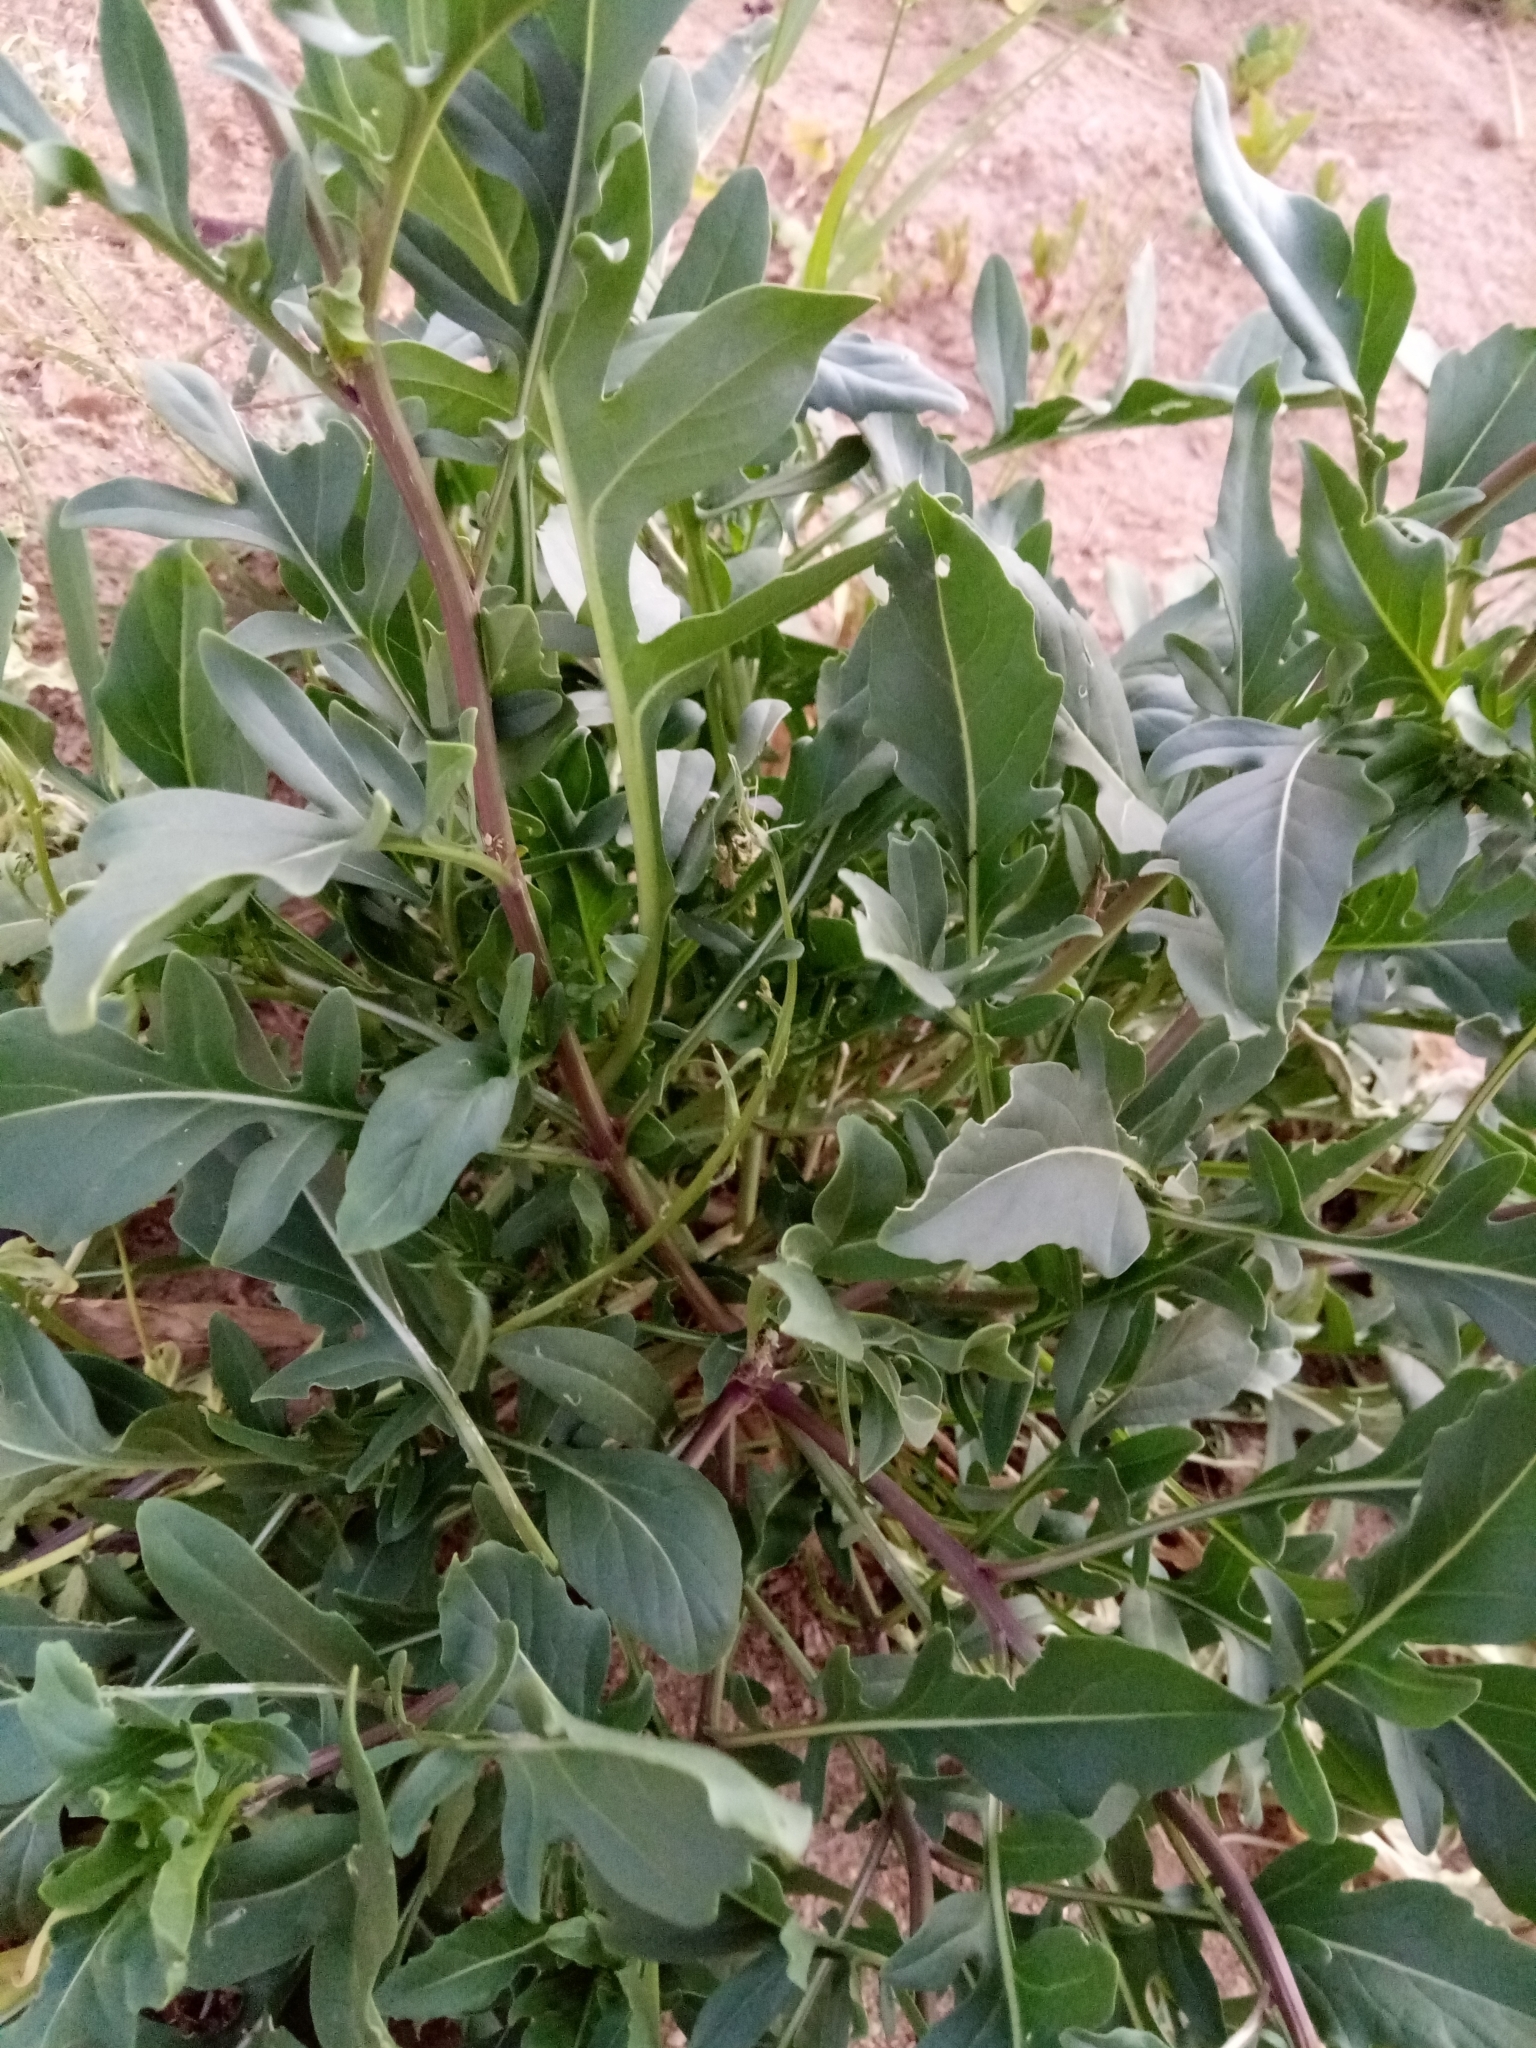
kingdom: Plantae
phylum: Tracheophyta
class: Magnoliopsida
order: Brassicales
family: Brassicaceae
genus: Eruca
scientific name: Eruca vesicaria
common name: Garden rocket
